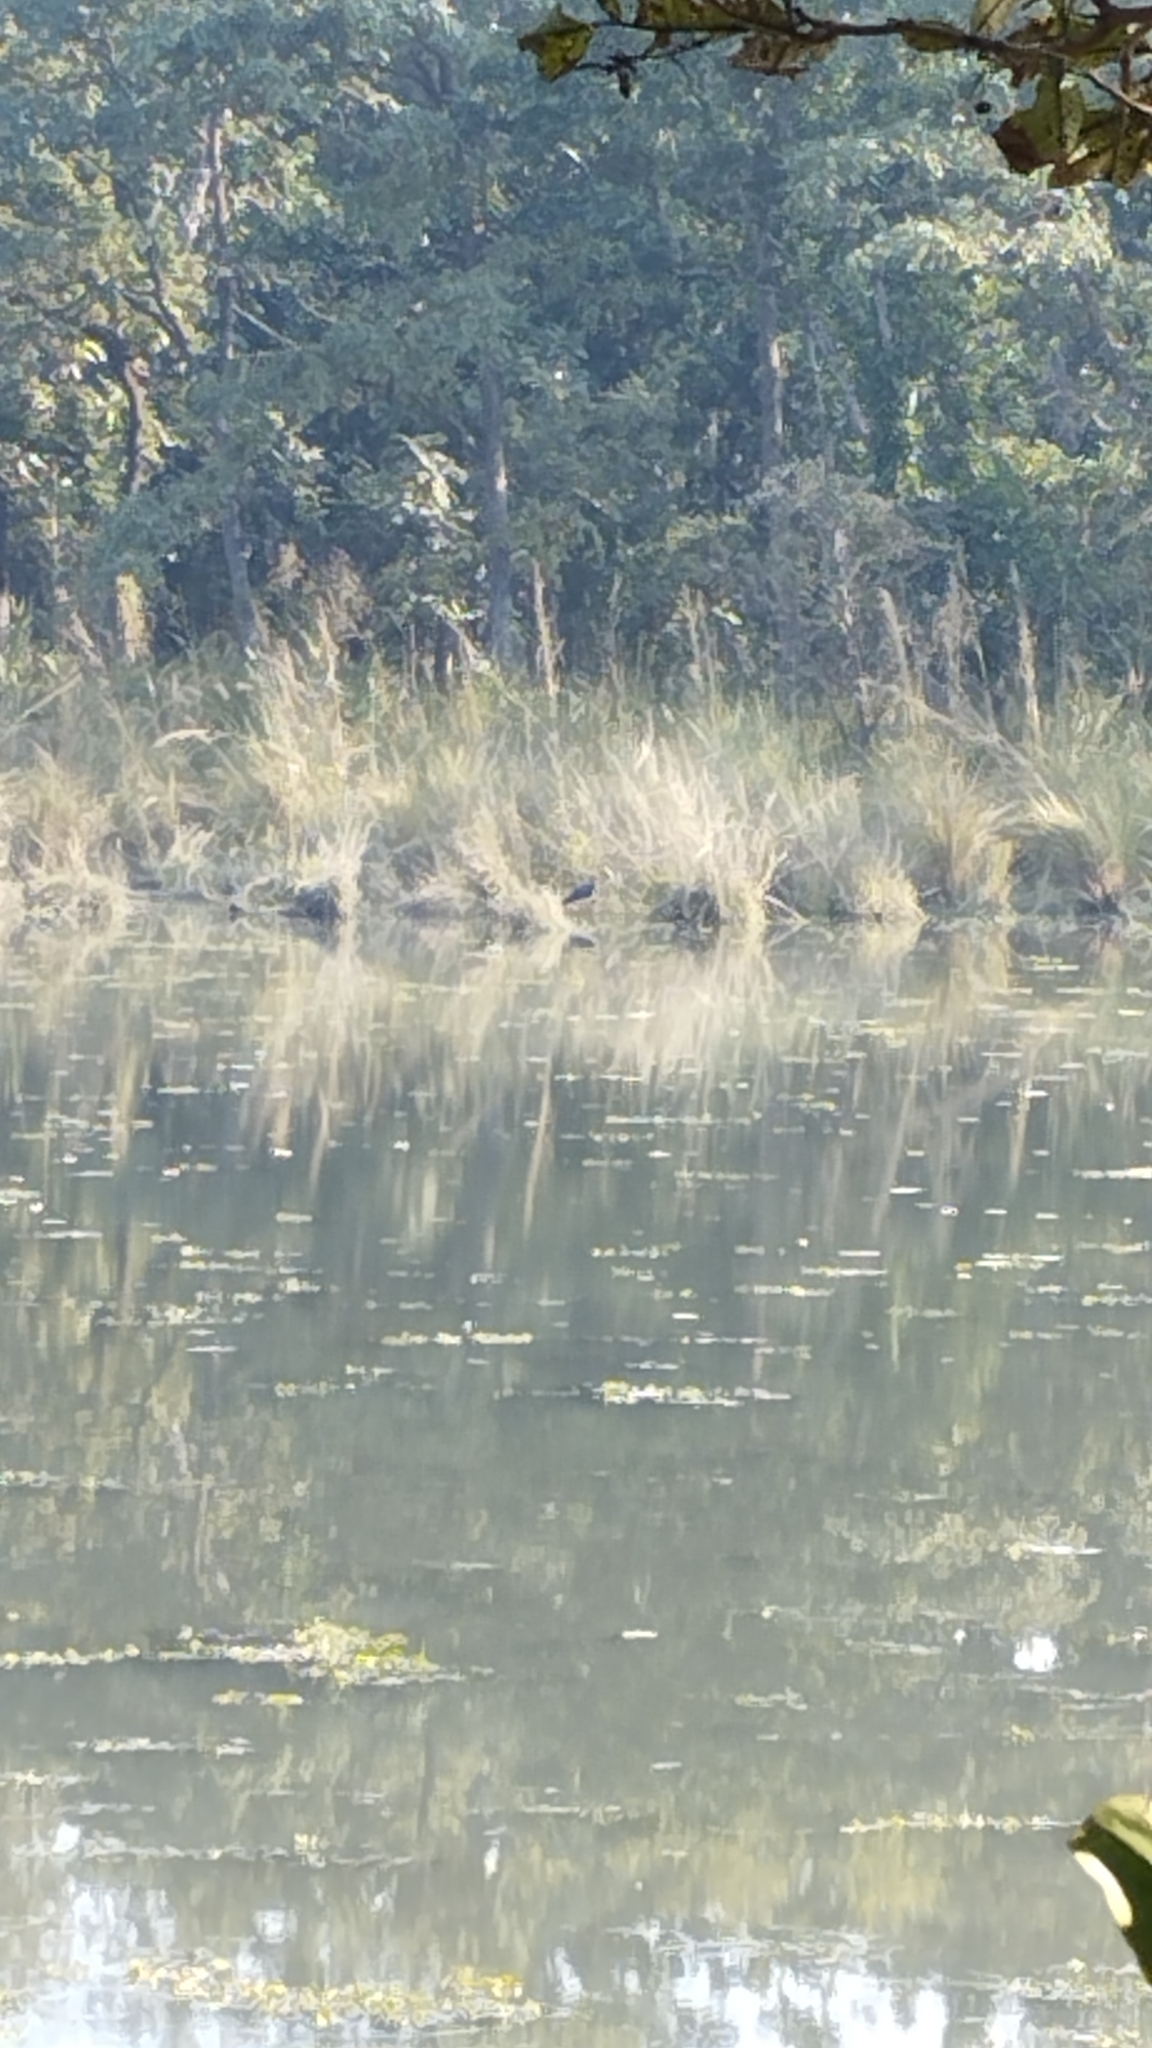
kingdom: Animalia
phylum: Chordata
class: Aves
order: Ciconiiformes
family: Ciconiidae
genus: Leptoptilos
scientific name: Leptoptilos javanicus
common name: Lesser adjutant
